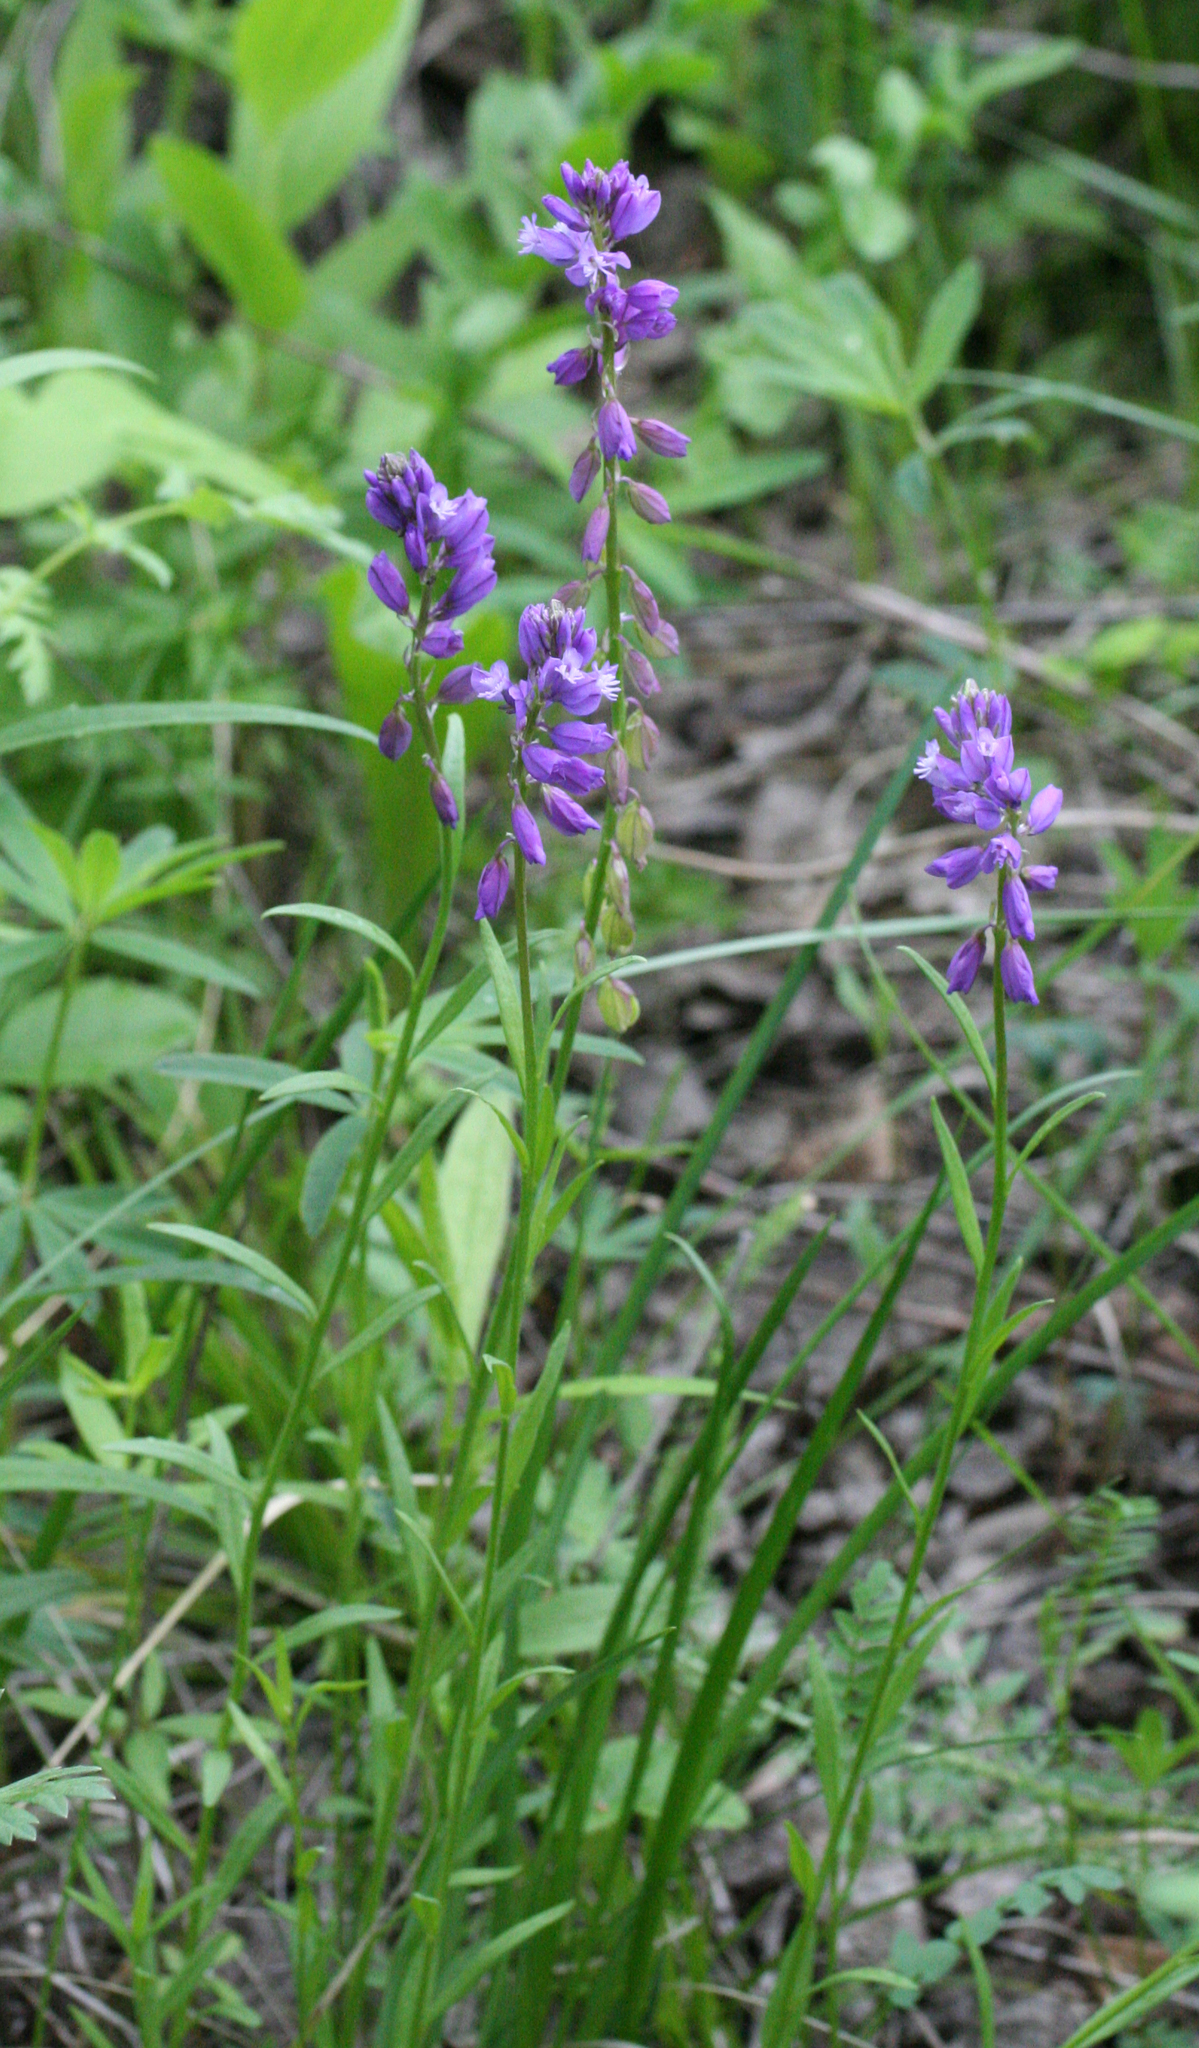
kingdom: Plantae
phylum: Tracheophyta
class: Magnoliopsida
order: Fabales
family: Polygalaceae
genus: Polygala
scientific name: Polygala comosa
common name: Tufted milkwort
